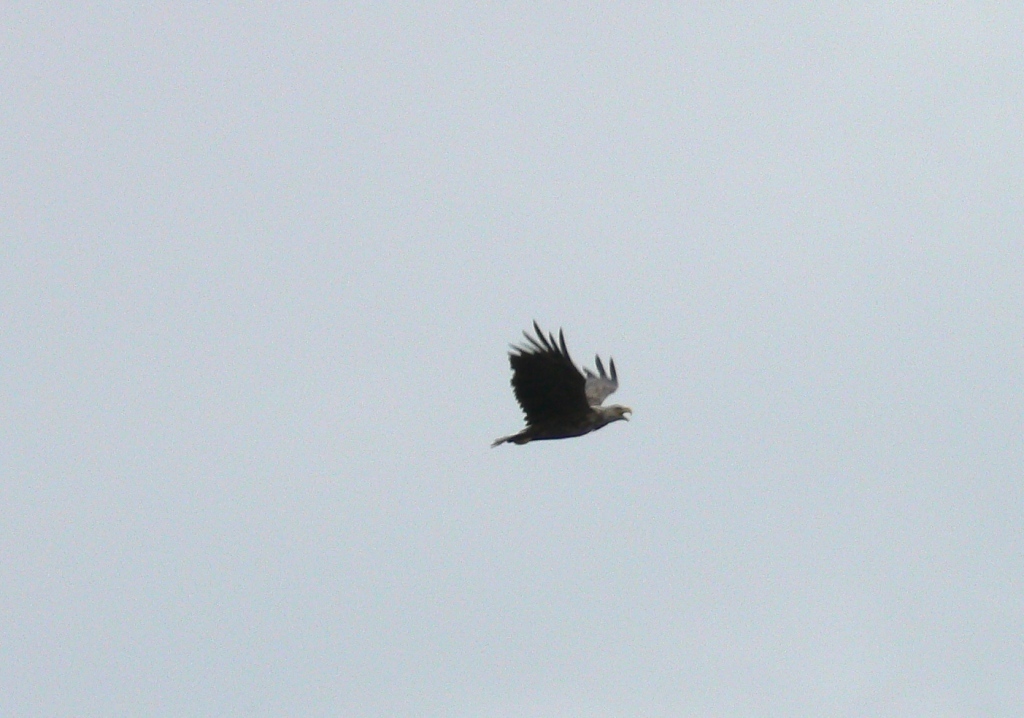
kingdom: Animalia
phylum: Chordata
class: Aves
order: Accipitriformes
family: Accipitridae
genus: Haliaeetus
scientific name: Haliaeetus albicilla
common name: White-tailed eagle
